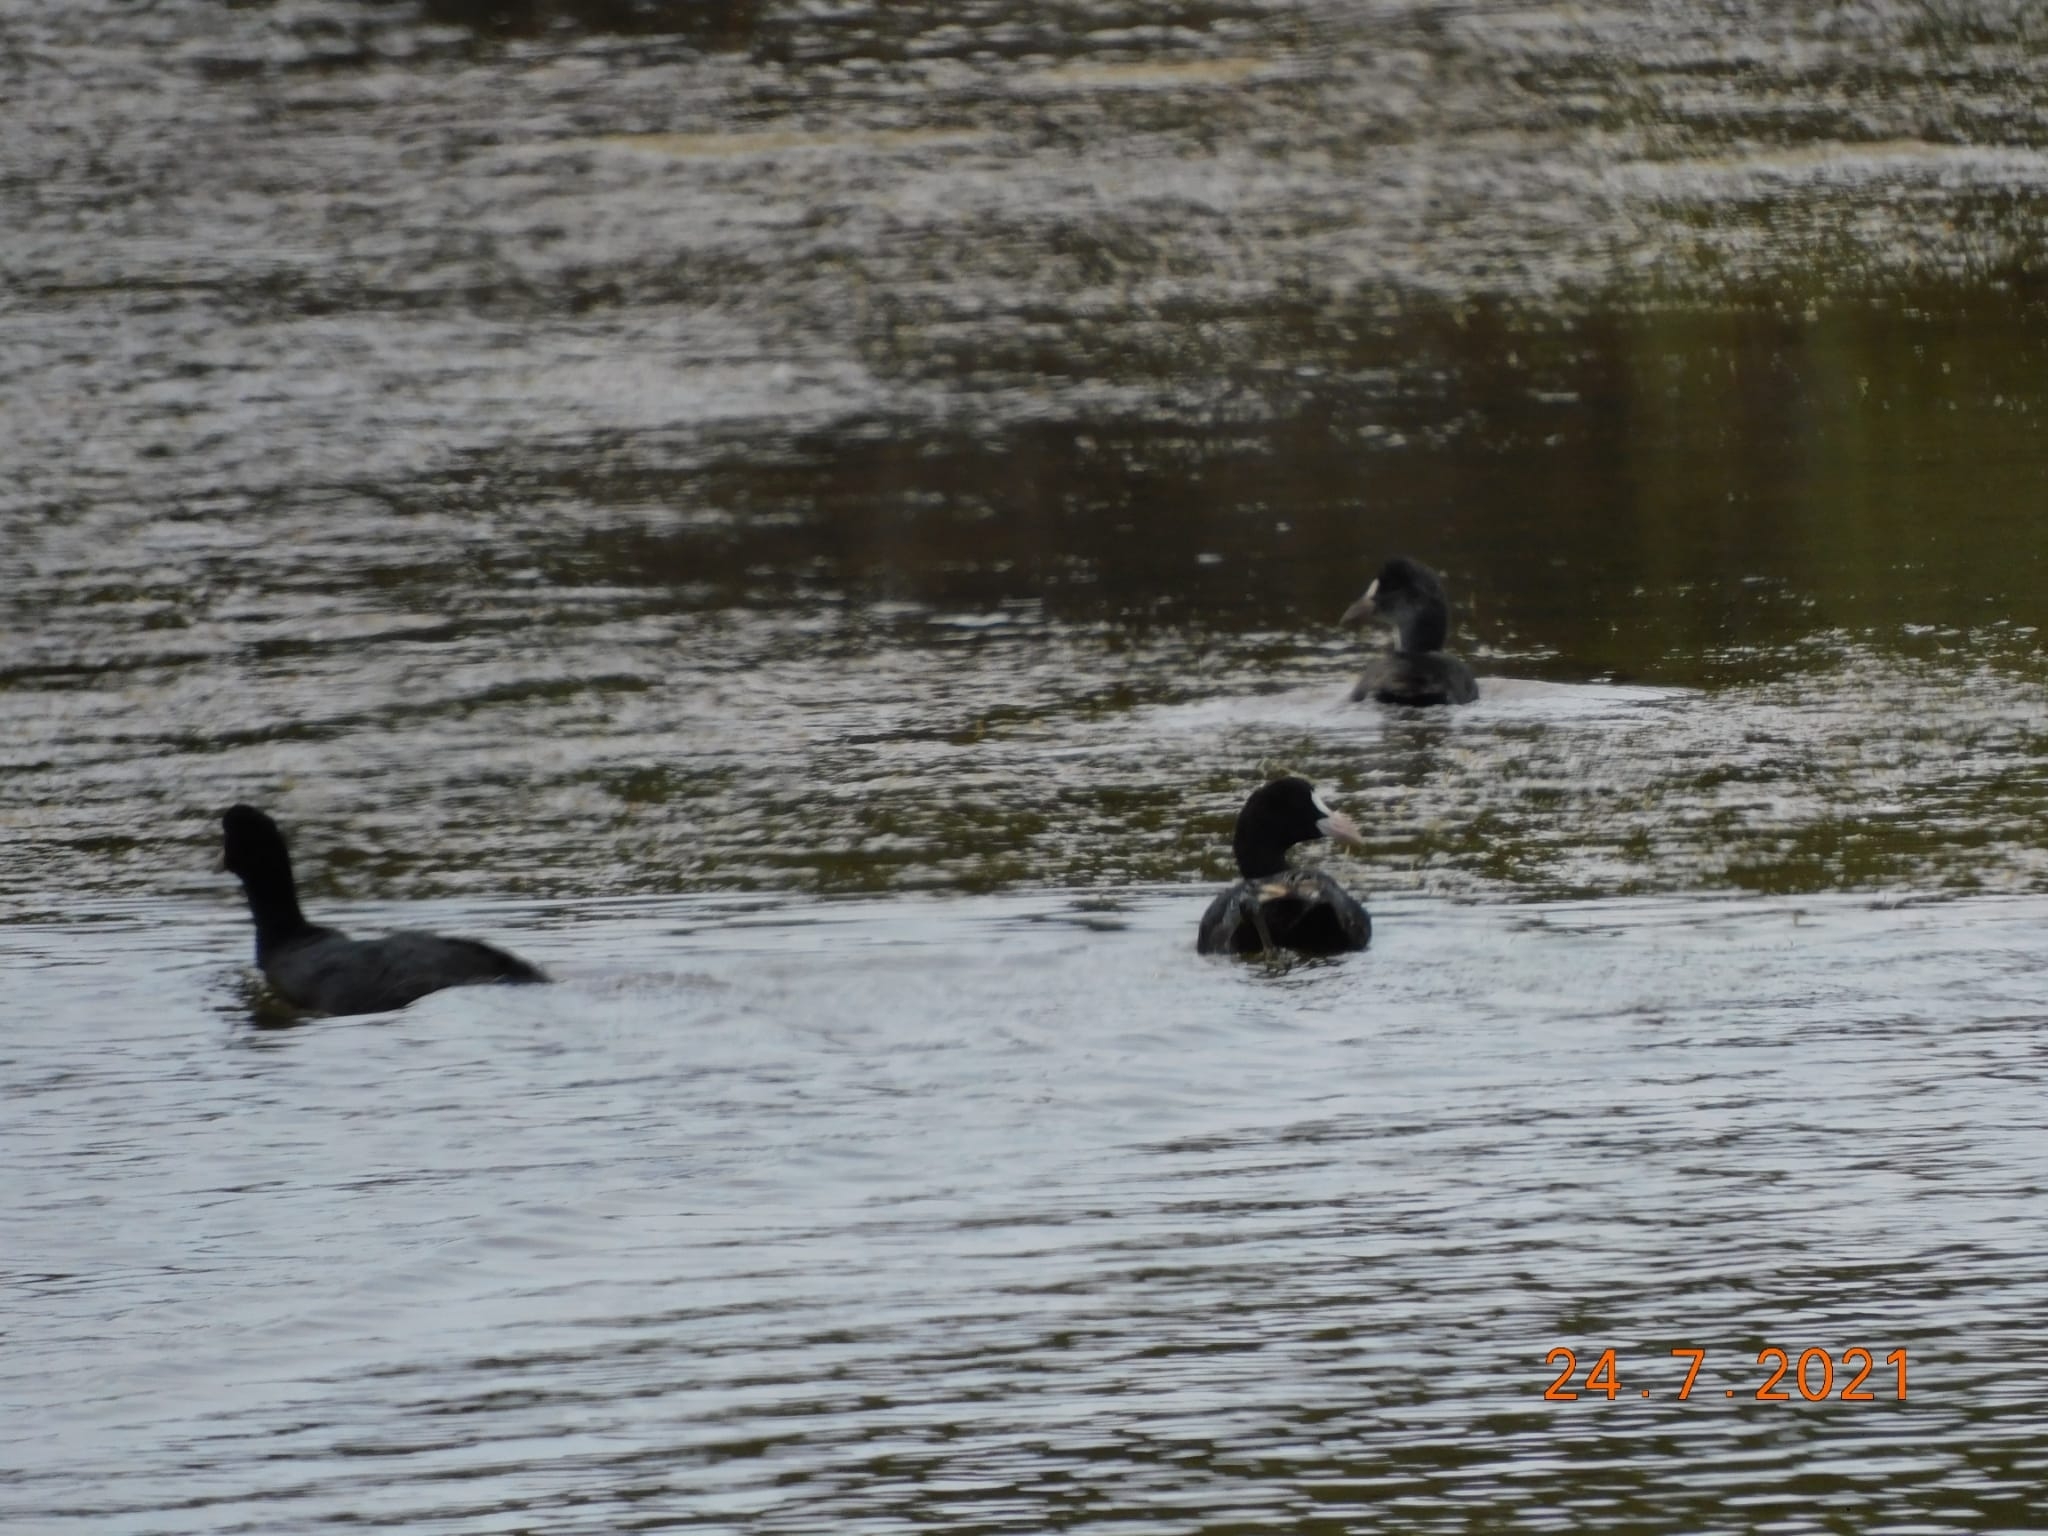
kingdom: Animalia
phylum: Chordata
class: Aves
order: Gruiformes
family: Rallidae
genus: Fulica
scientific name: Fulica atra
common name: Eurasian coot
